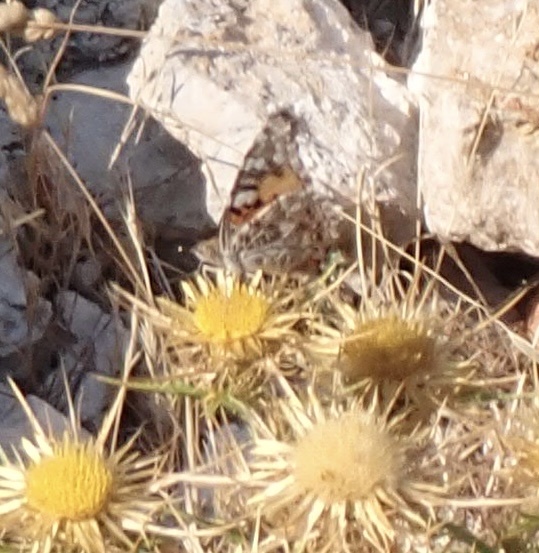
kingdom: Animalia
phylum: Arthropoda
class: Insecta
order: Lepidoptera
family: Nymphalidae
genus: Vanessa
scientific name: Vanessa cardui
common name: Painted lady
